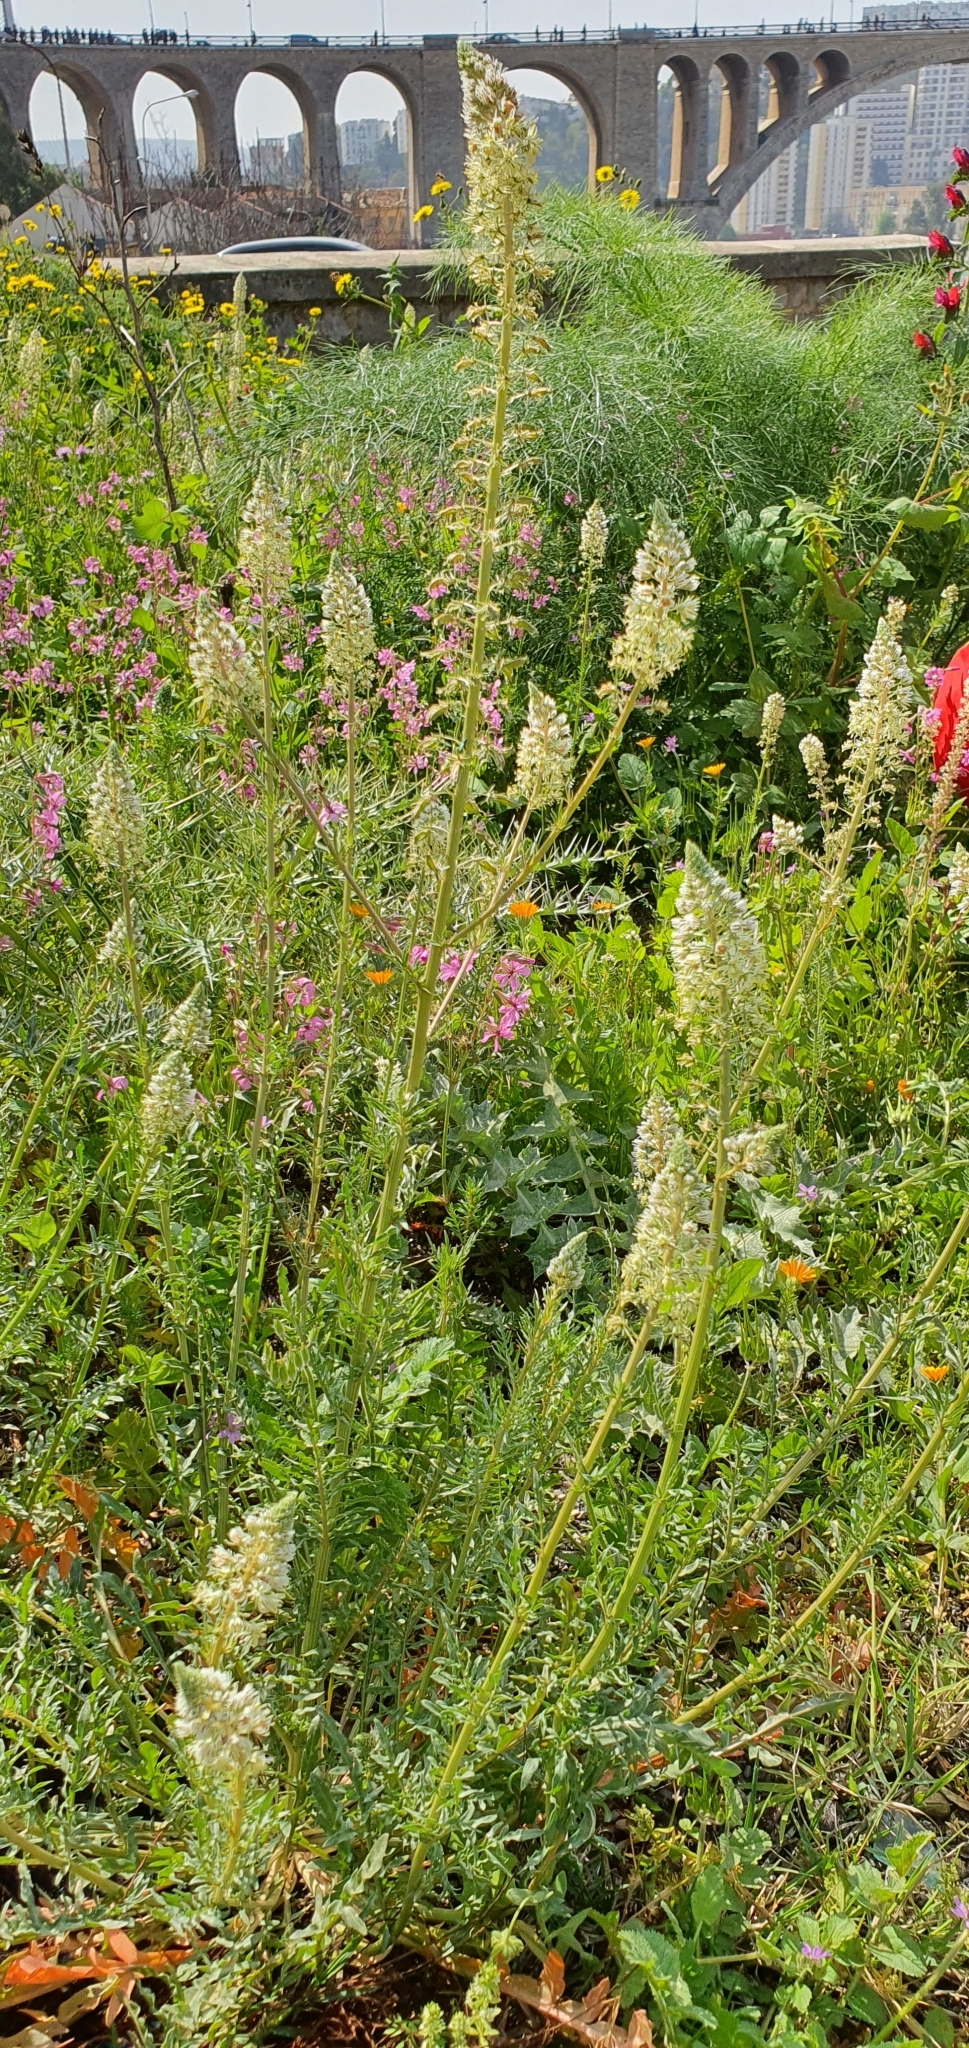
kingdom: Plantae
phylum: Tracheophyta
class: Magnoliopsida
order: Brassicales
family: Resedaceae
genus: Reseda
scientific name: Reseda alba
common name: White mignonette
